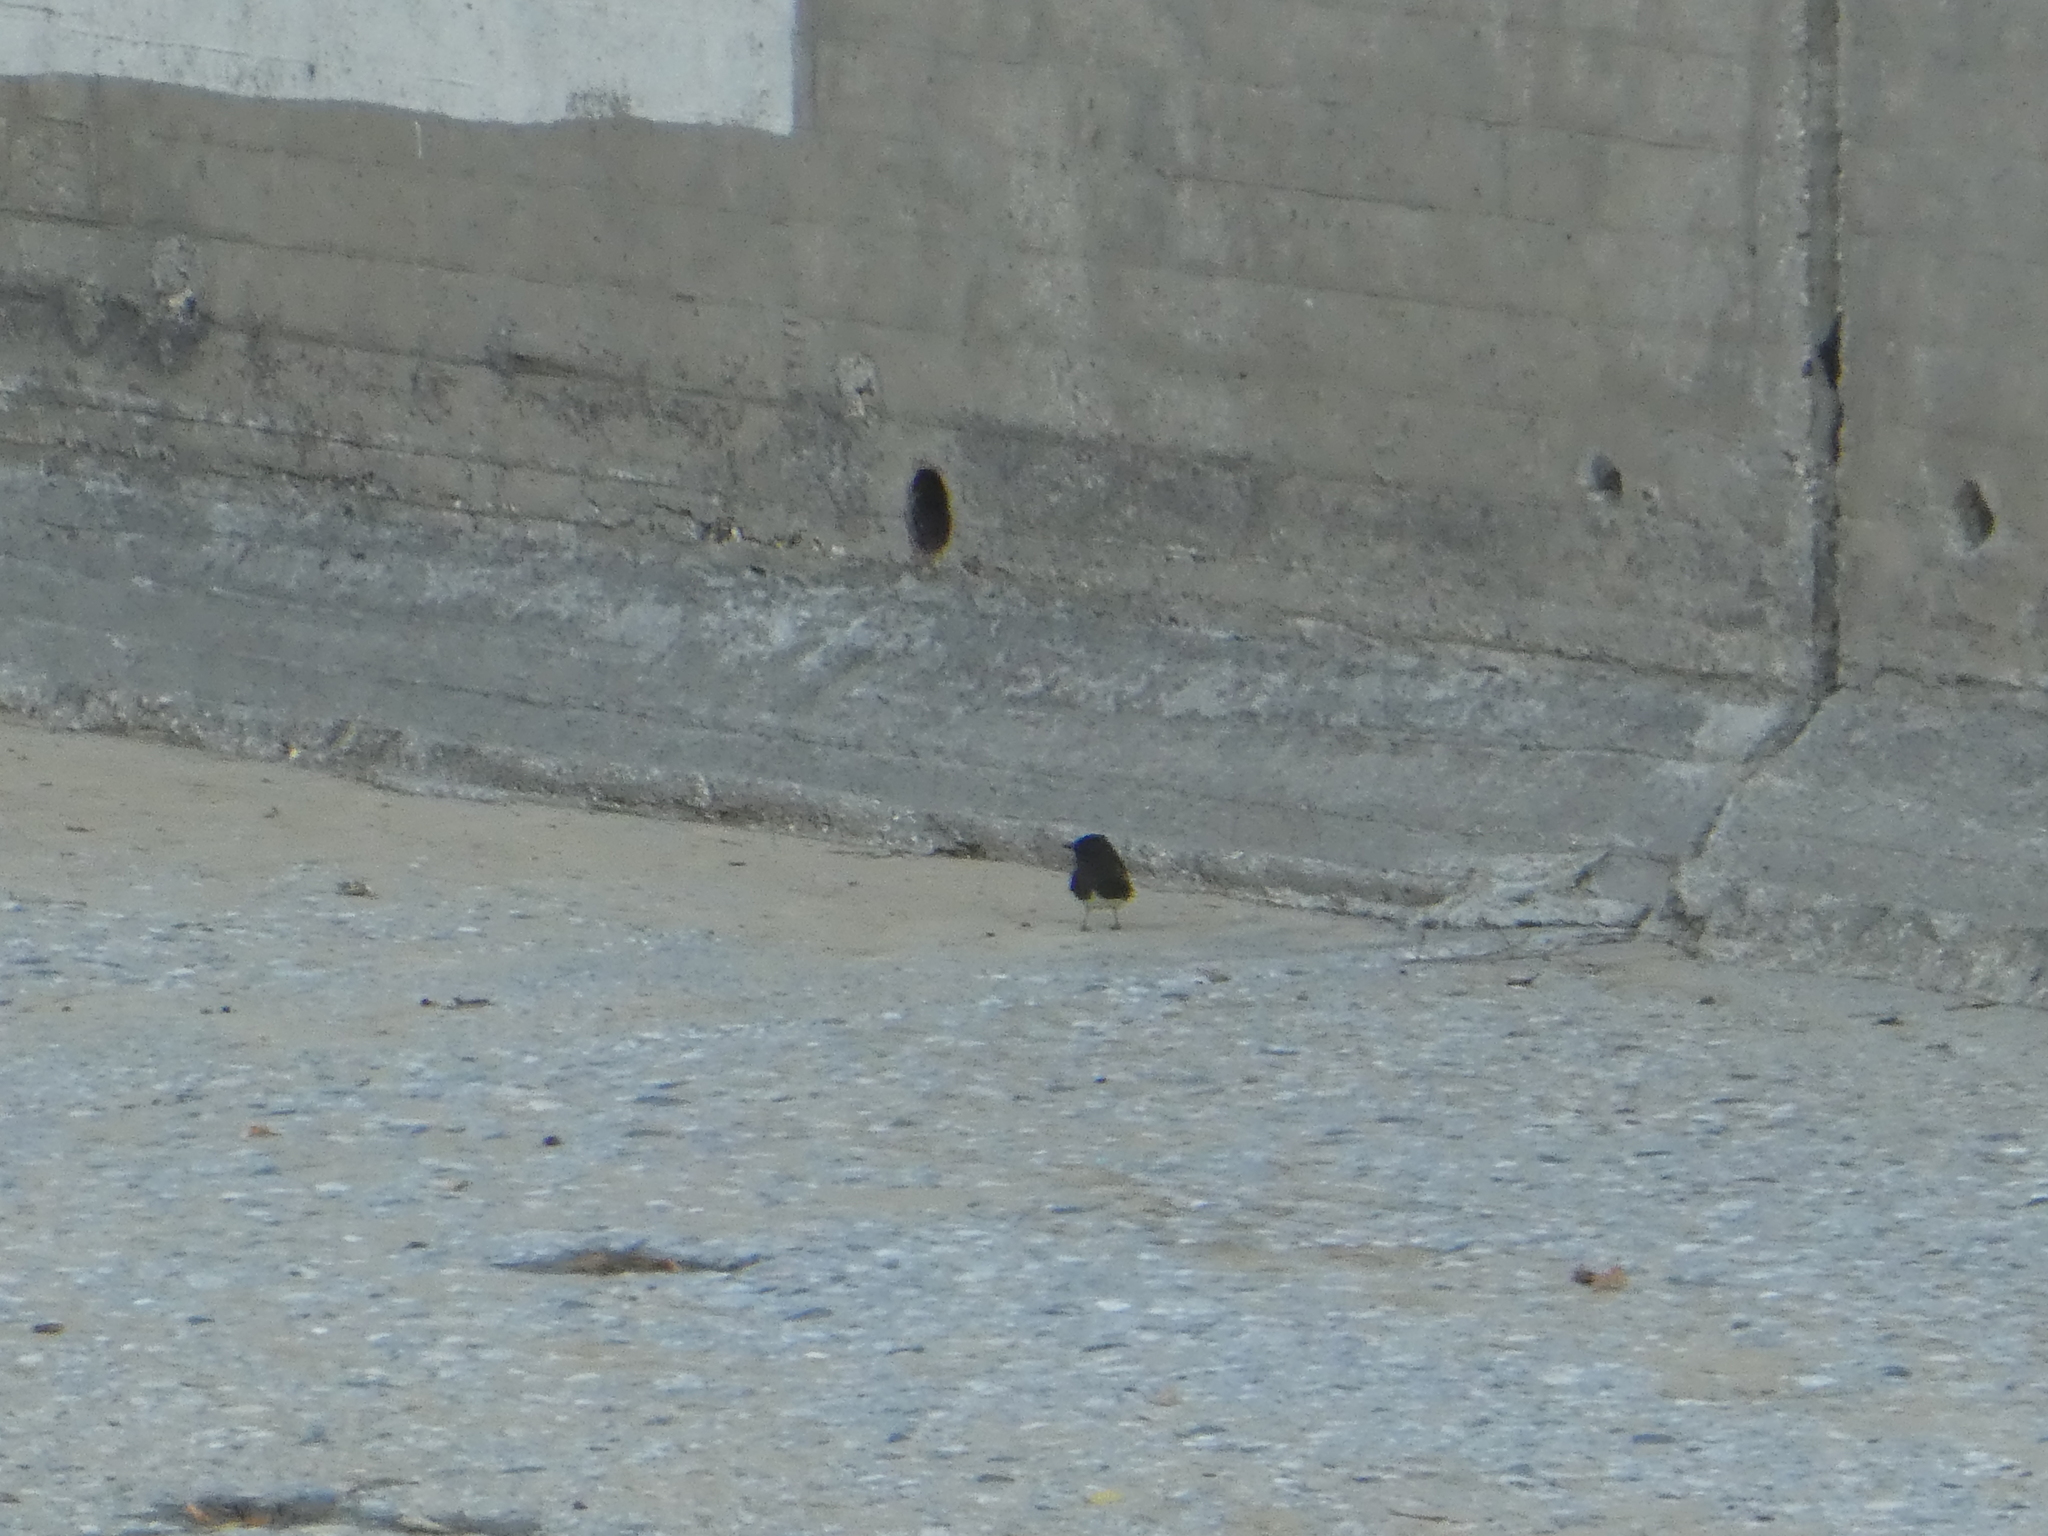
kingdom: Animalia
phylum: Chordata
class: Aves
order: Passeriformes
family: Tyrannidae
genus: Sayornis
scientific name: Sayornis nigricans
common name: Black phoebe
